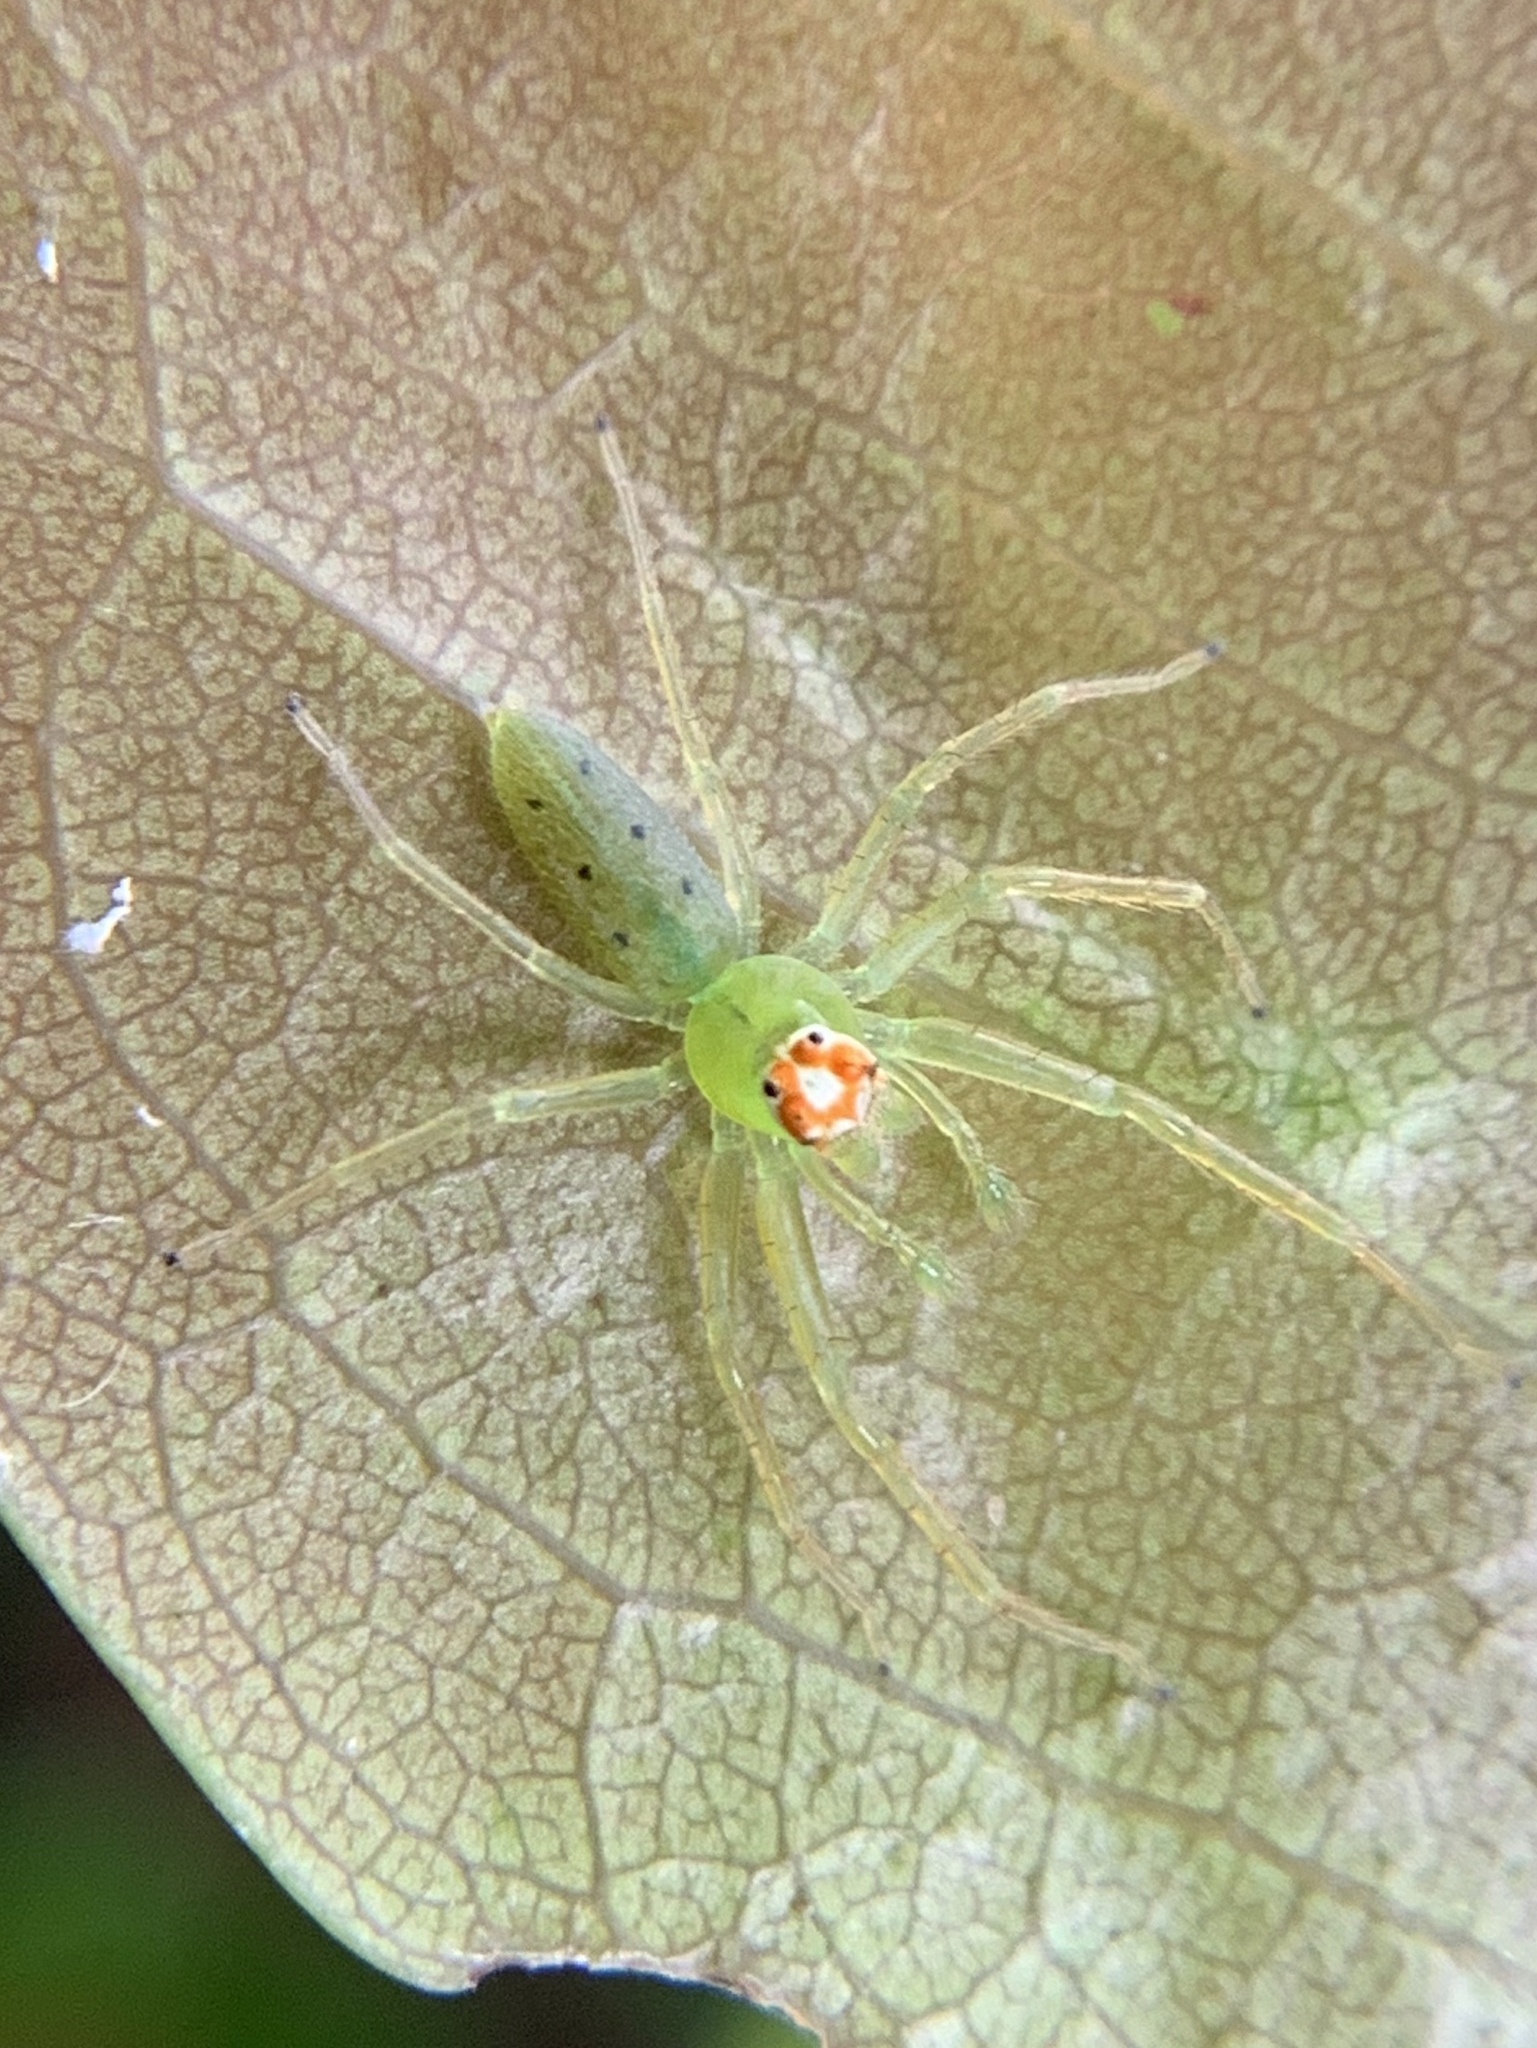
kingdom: Animalia
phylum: Arthropoda
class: Arachnida
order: Araneae
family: Salticidae
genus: Lyssomanes
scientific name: Lyssomanes viridis
